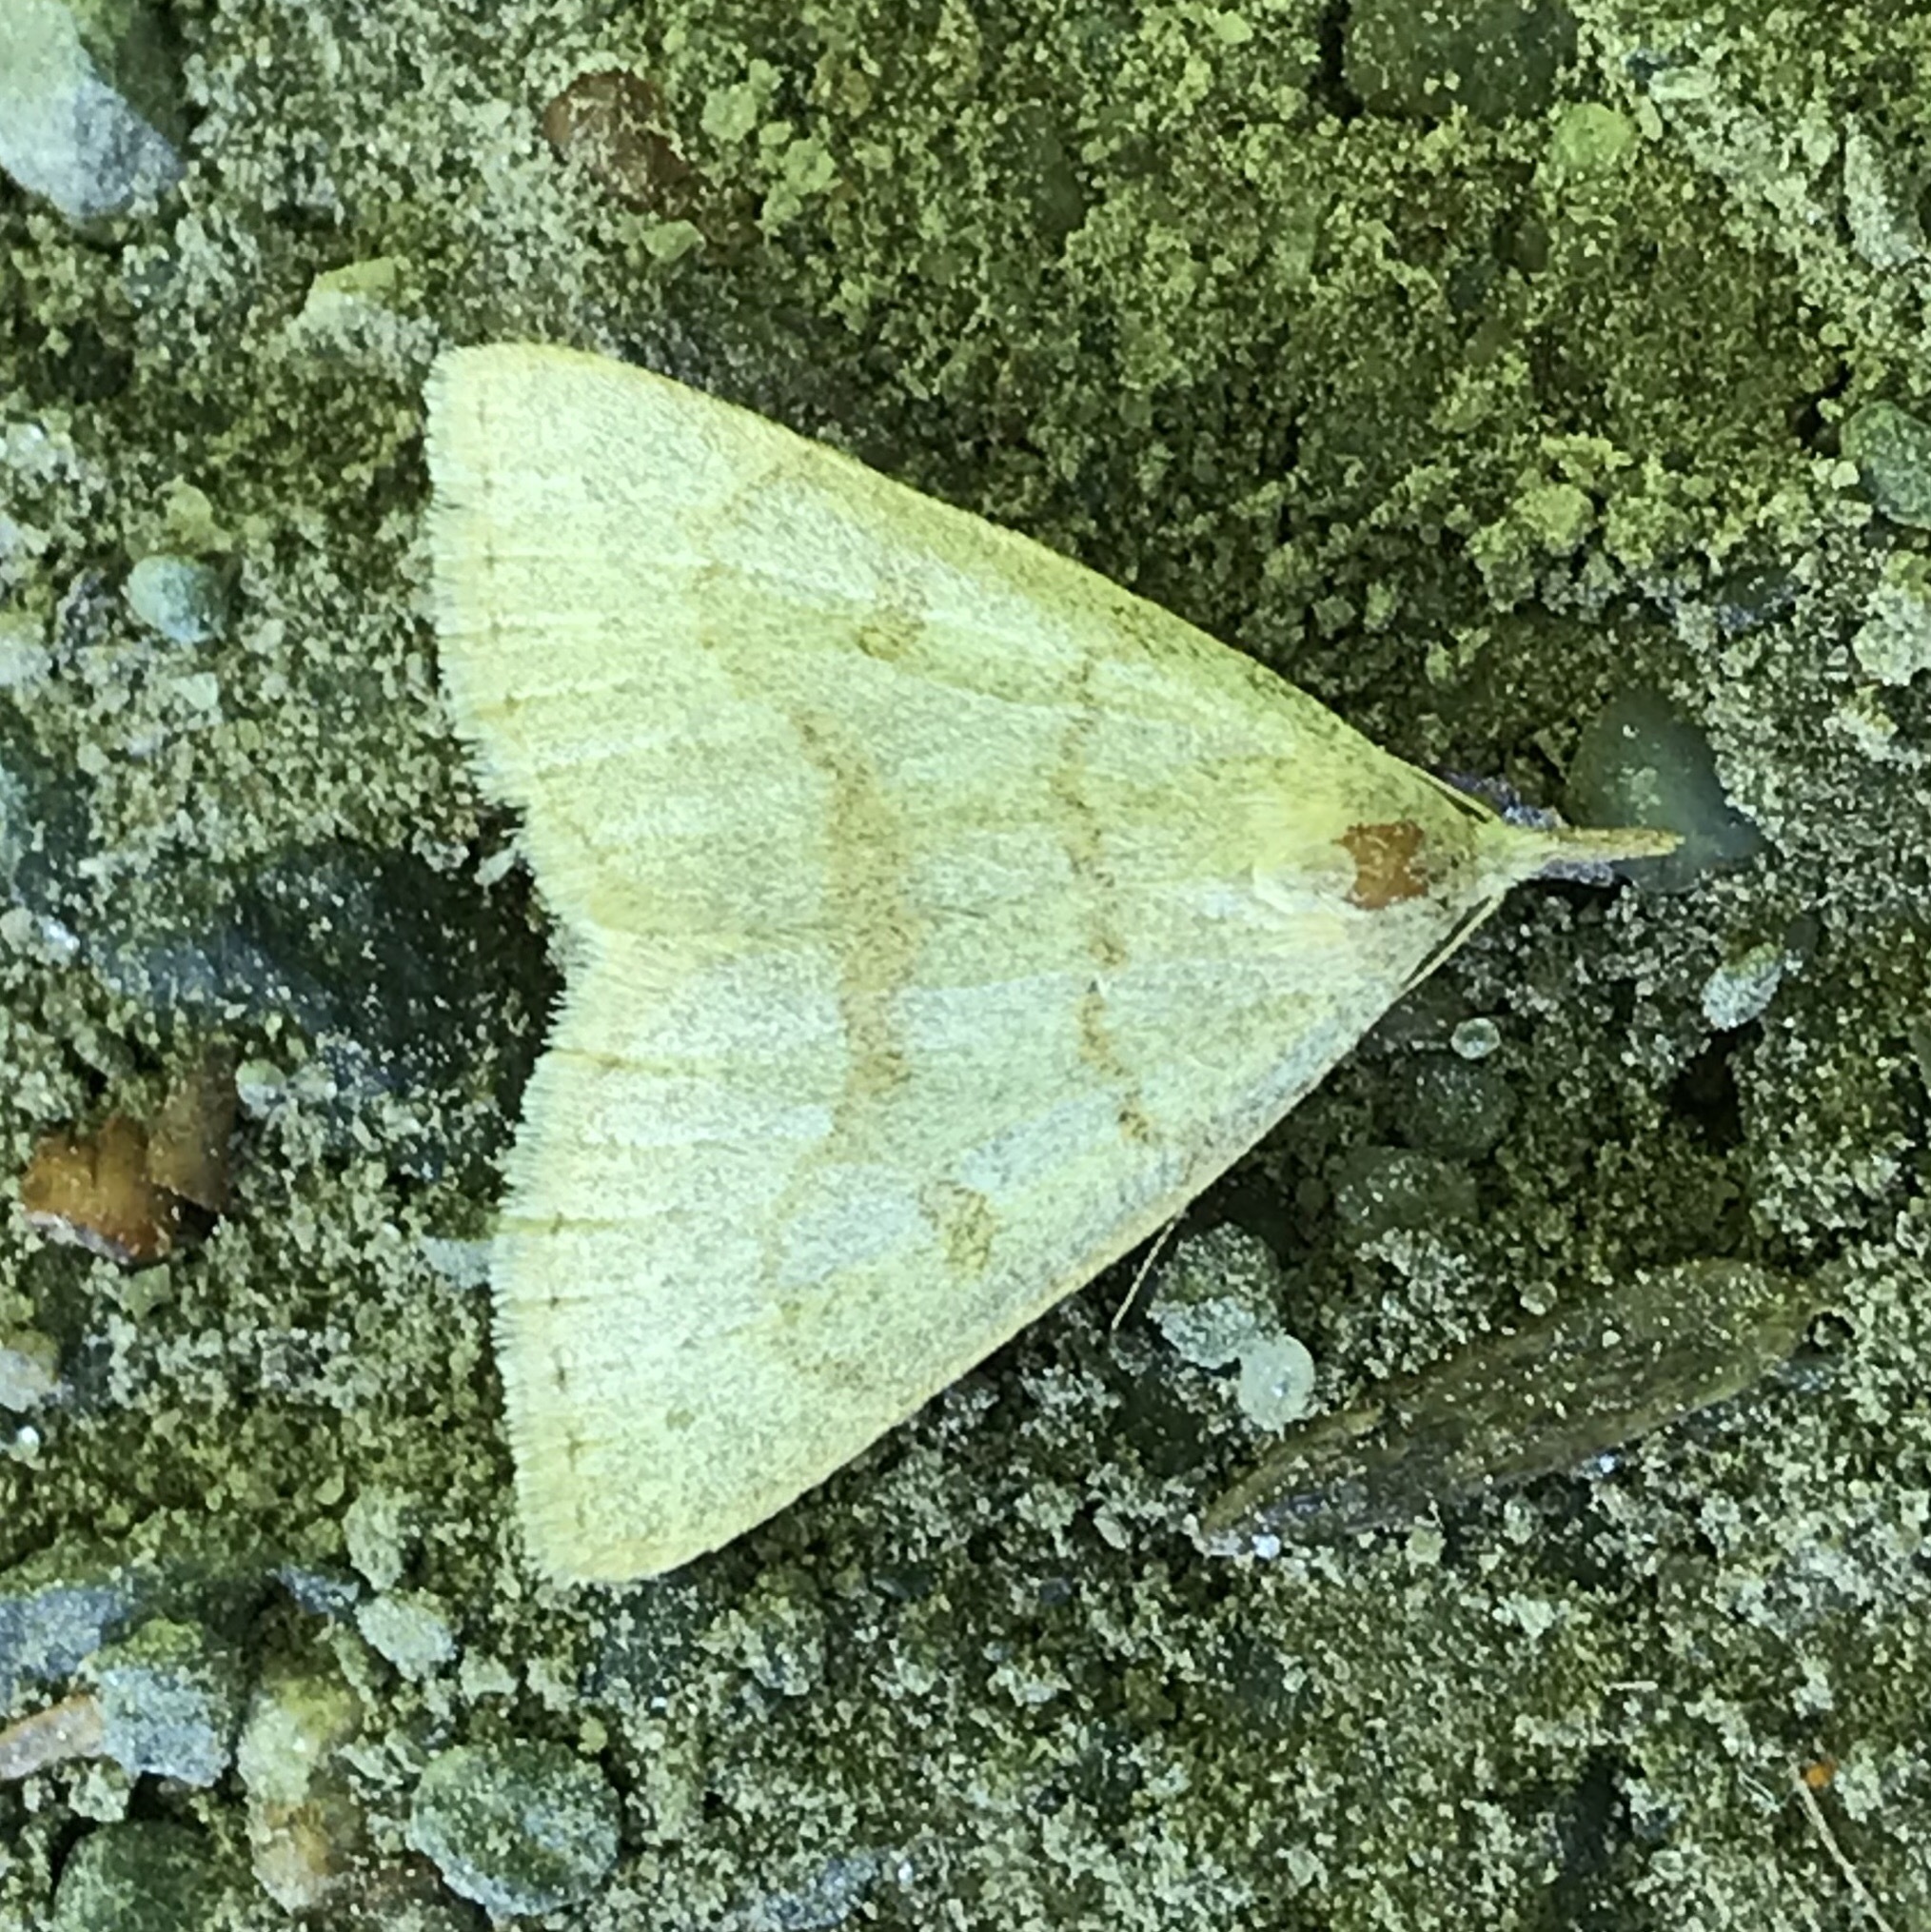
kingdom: Animalia
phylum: Arthropoda
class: Insecta
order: Lepidoptera
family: Erebidae
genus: Macrochilo
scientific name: Macrochilo morbidalis
